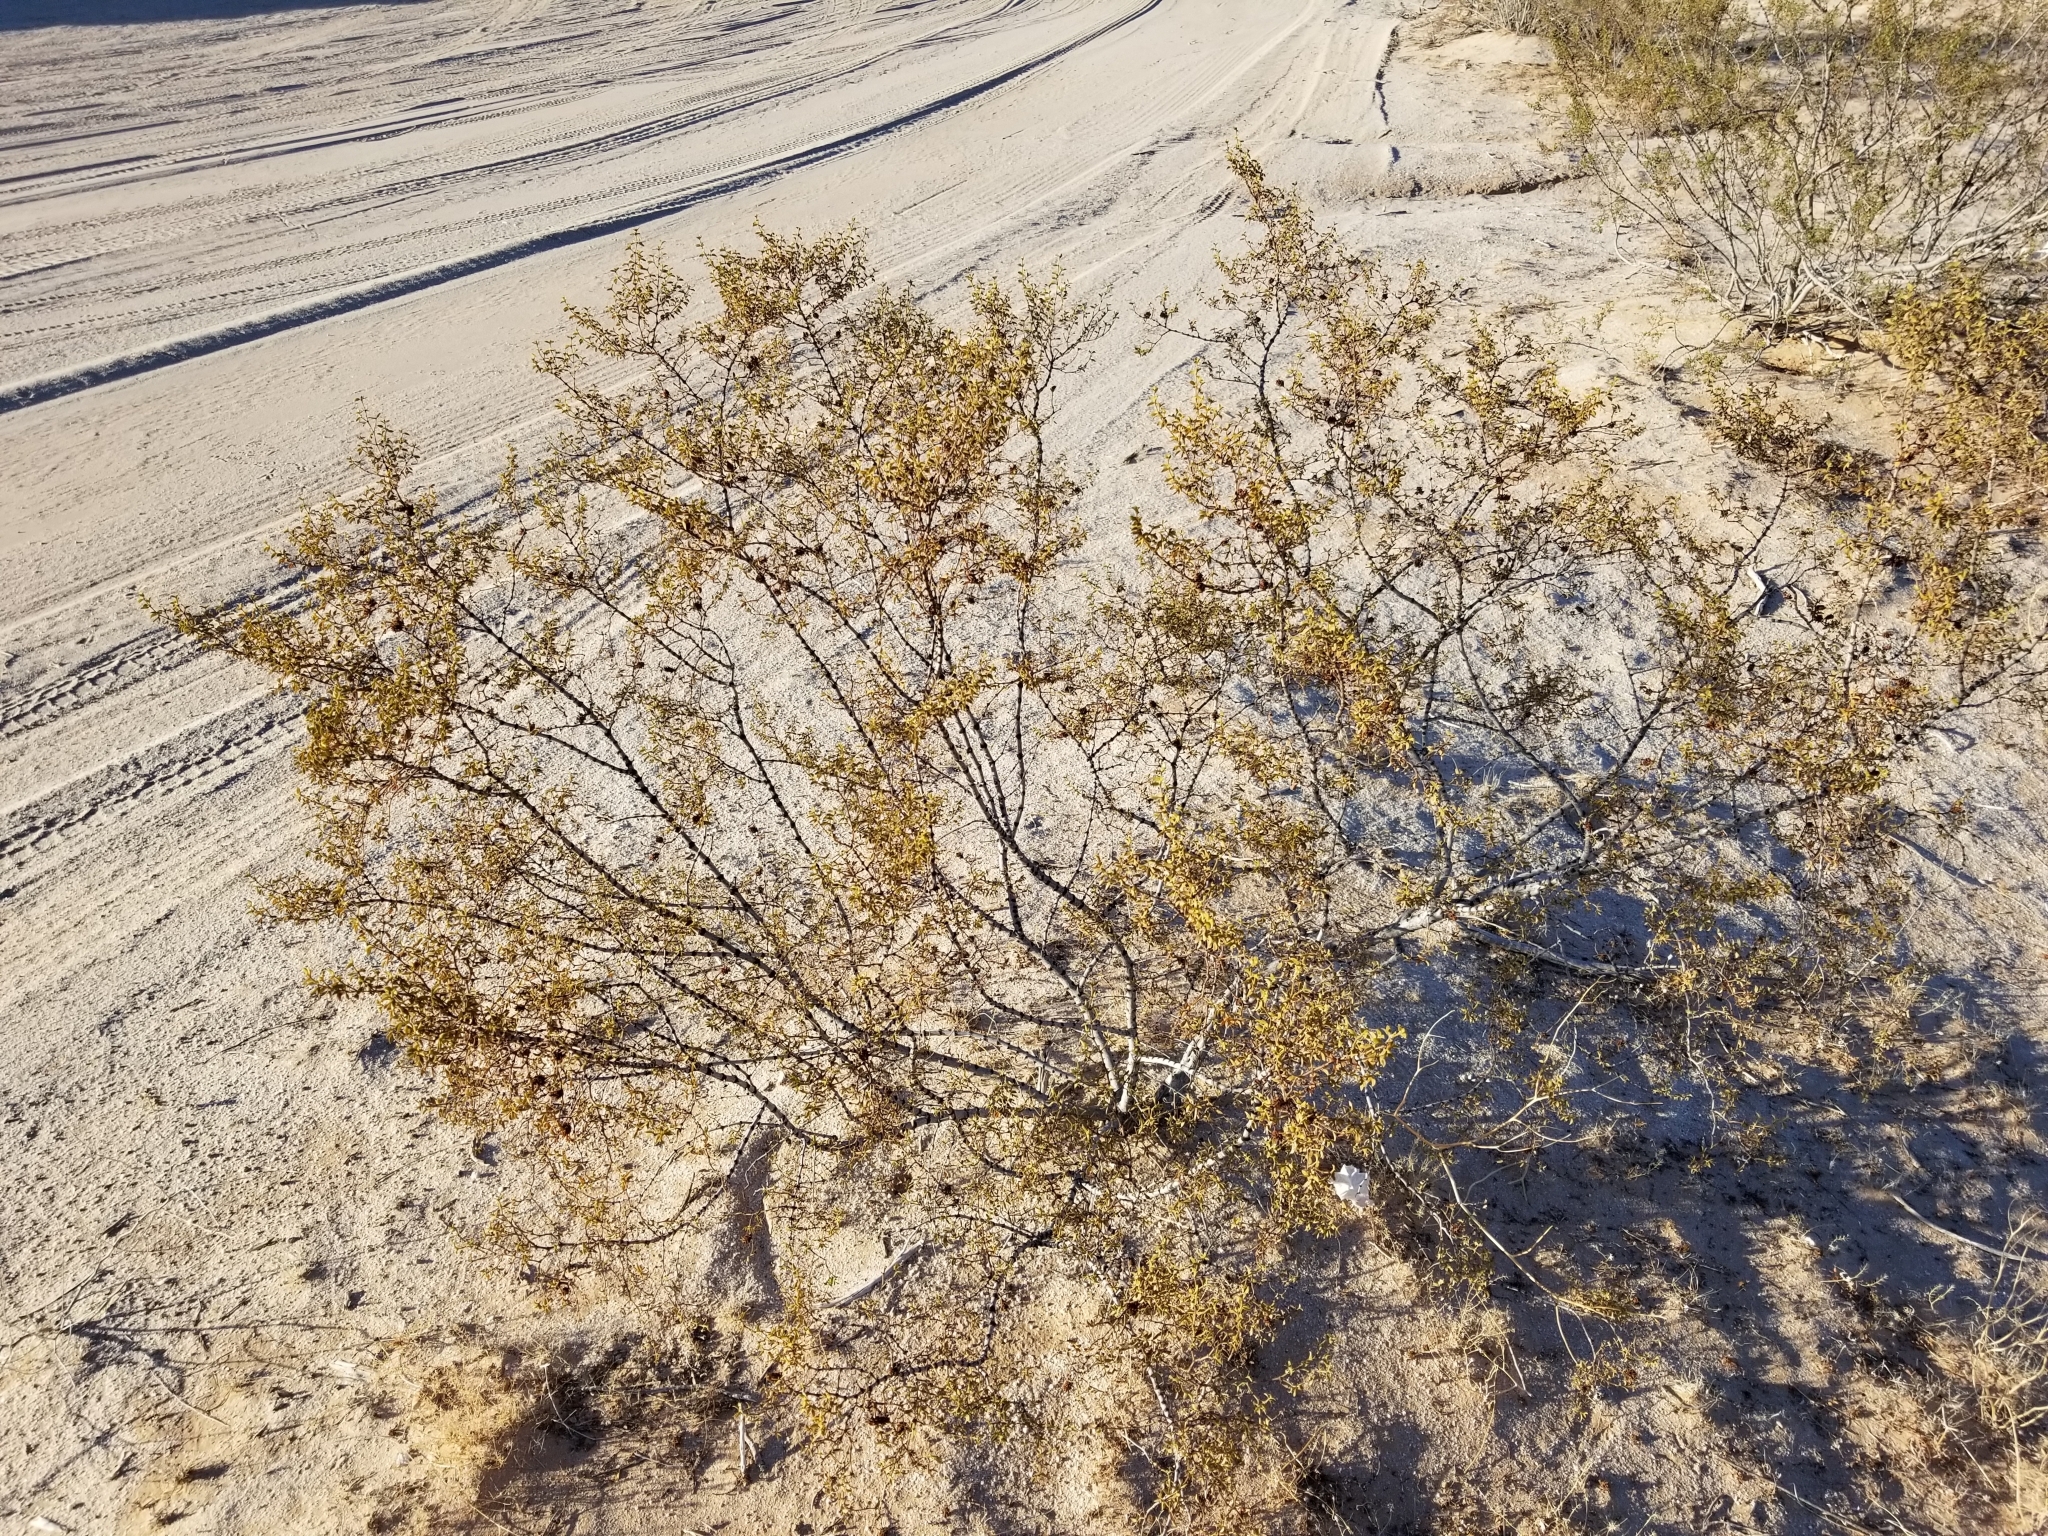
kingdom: Plantae
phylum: Tracheophyta
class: Magnoliopsida
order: Zygophyllales
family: Zygophyllaceae
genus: Larrea
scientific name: Larrea tridentata
